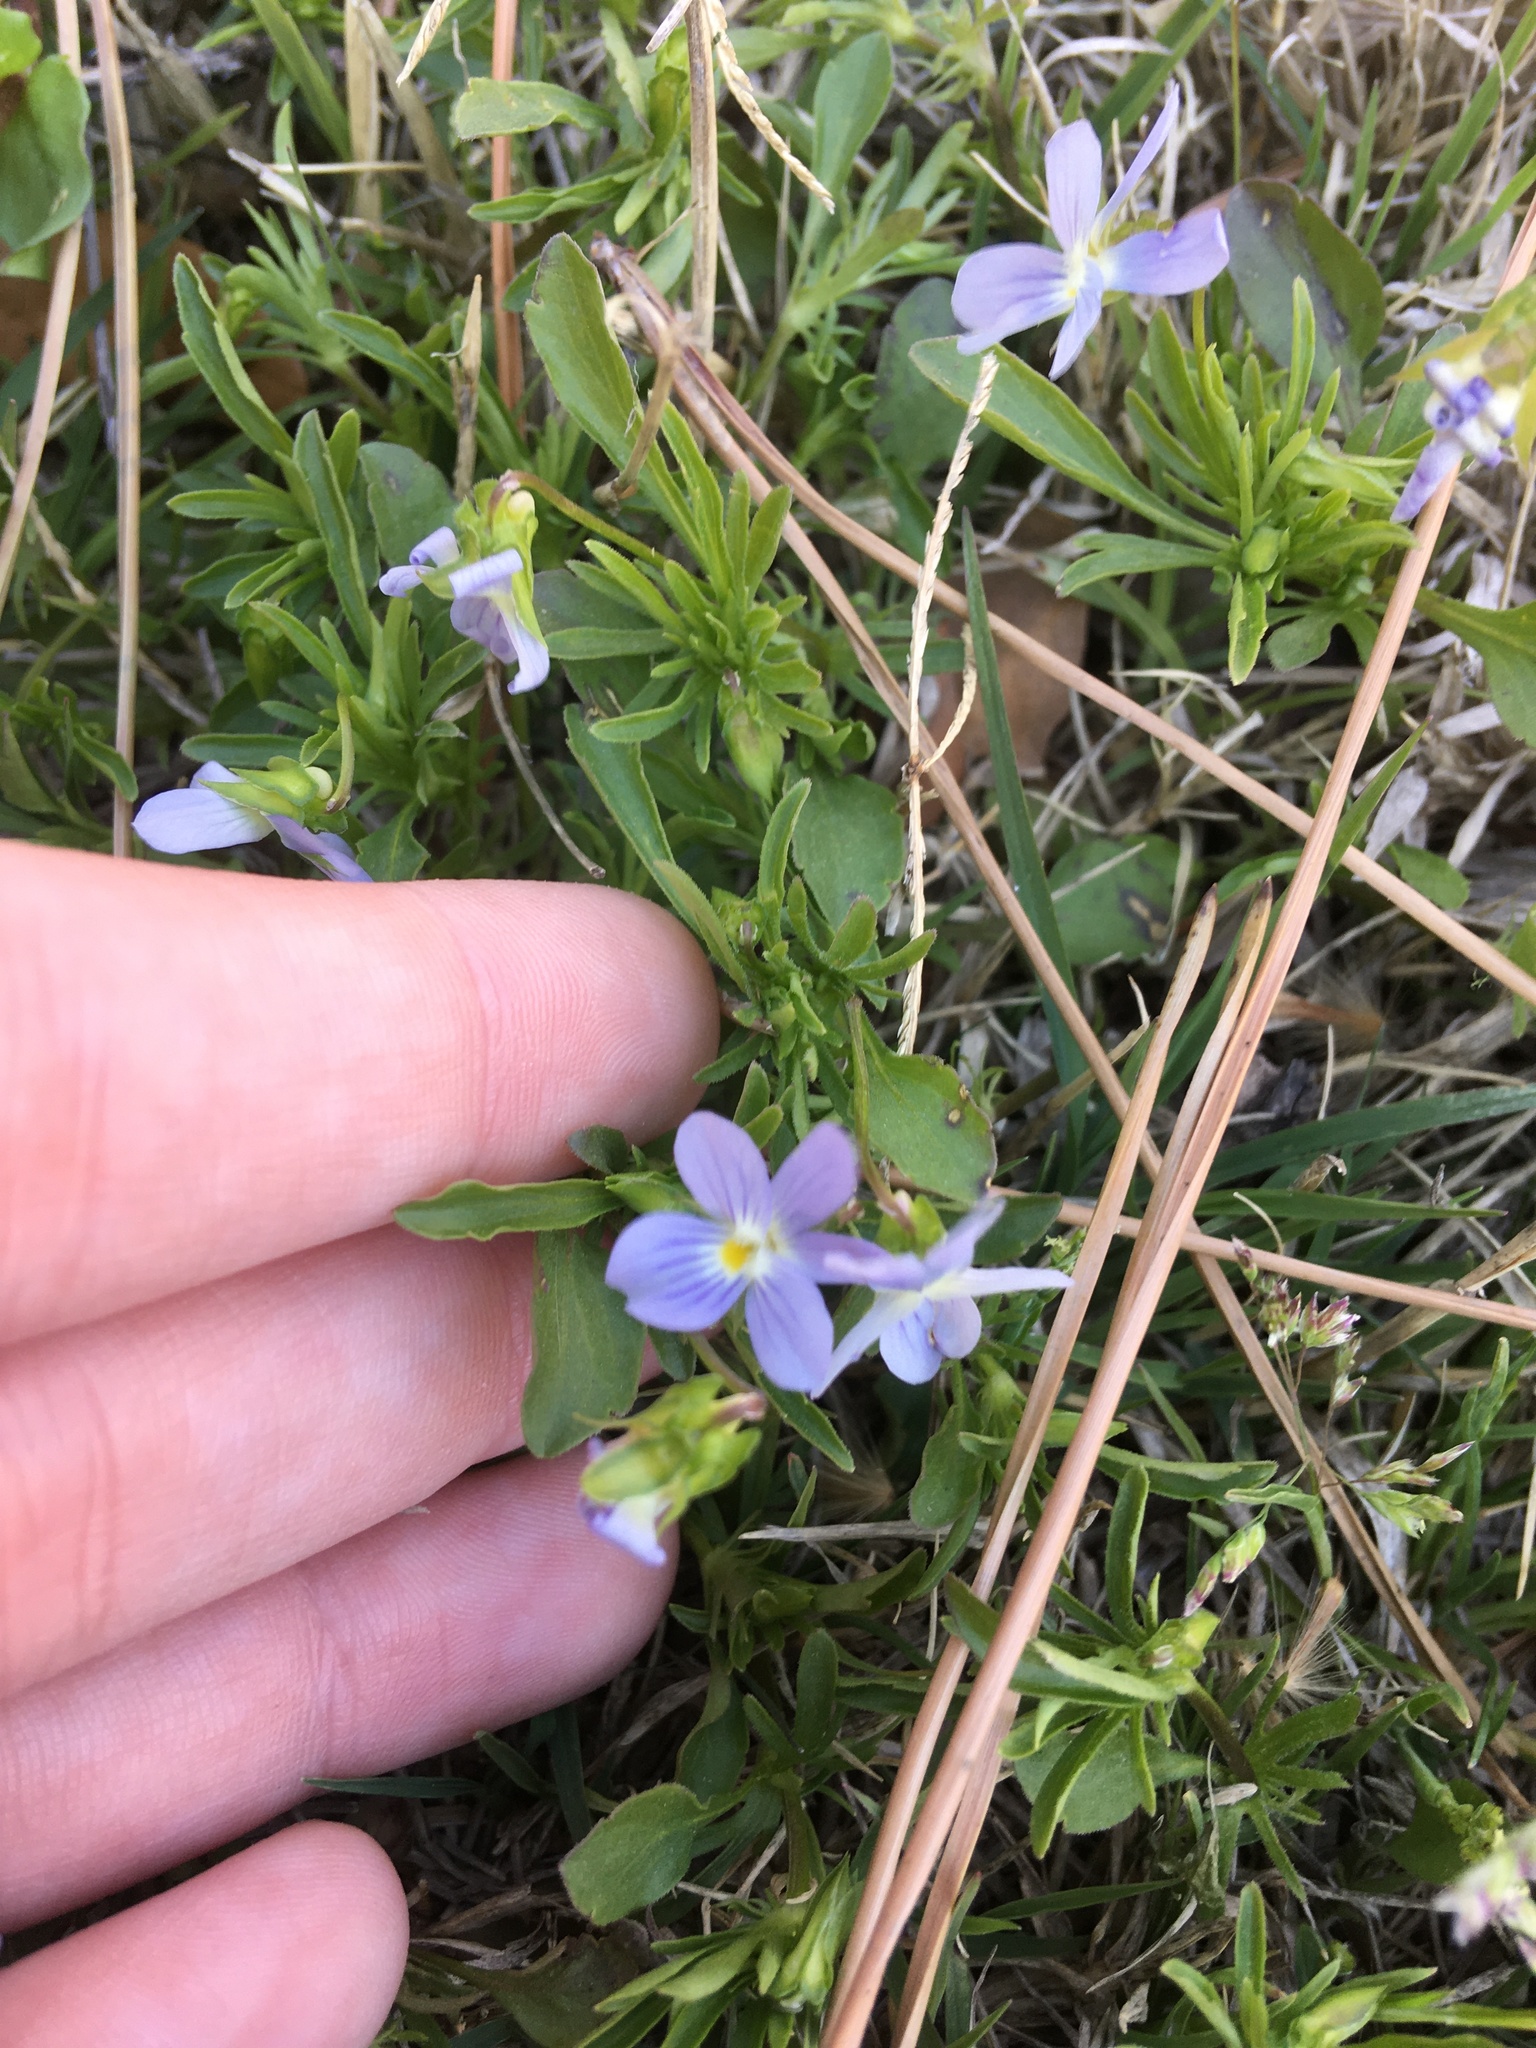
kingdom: Plantae
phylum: Tracheophyta
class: Magnoliopsida
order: Malpighiales
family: Violaceae
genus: Viola
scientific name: Viola rafinesquei
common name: American field pansy
